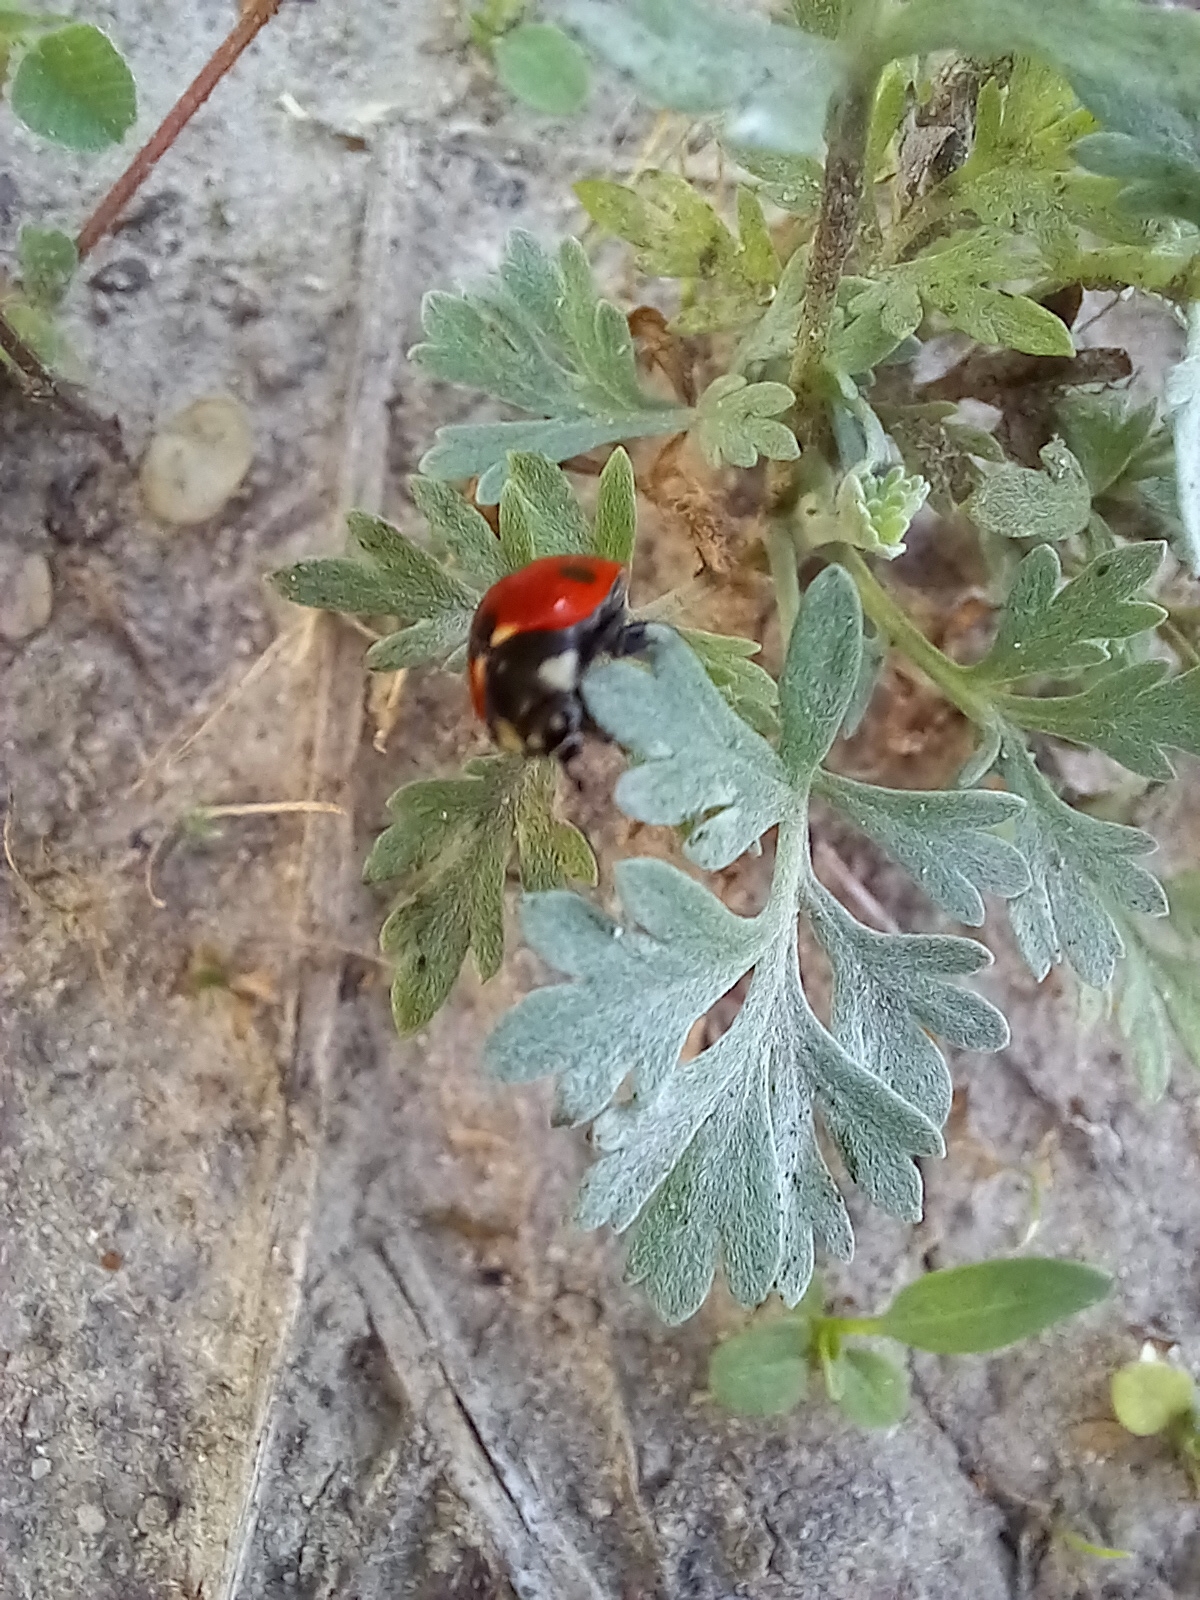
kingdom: Animalia
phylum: Arthropoda
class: Insecta
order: Coleoptera
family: Coccinellidae
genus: Coccinella
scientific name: Coccinella septempunctata
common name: Sevenspotted lady beetle
